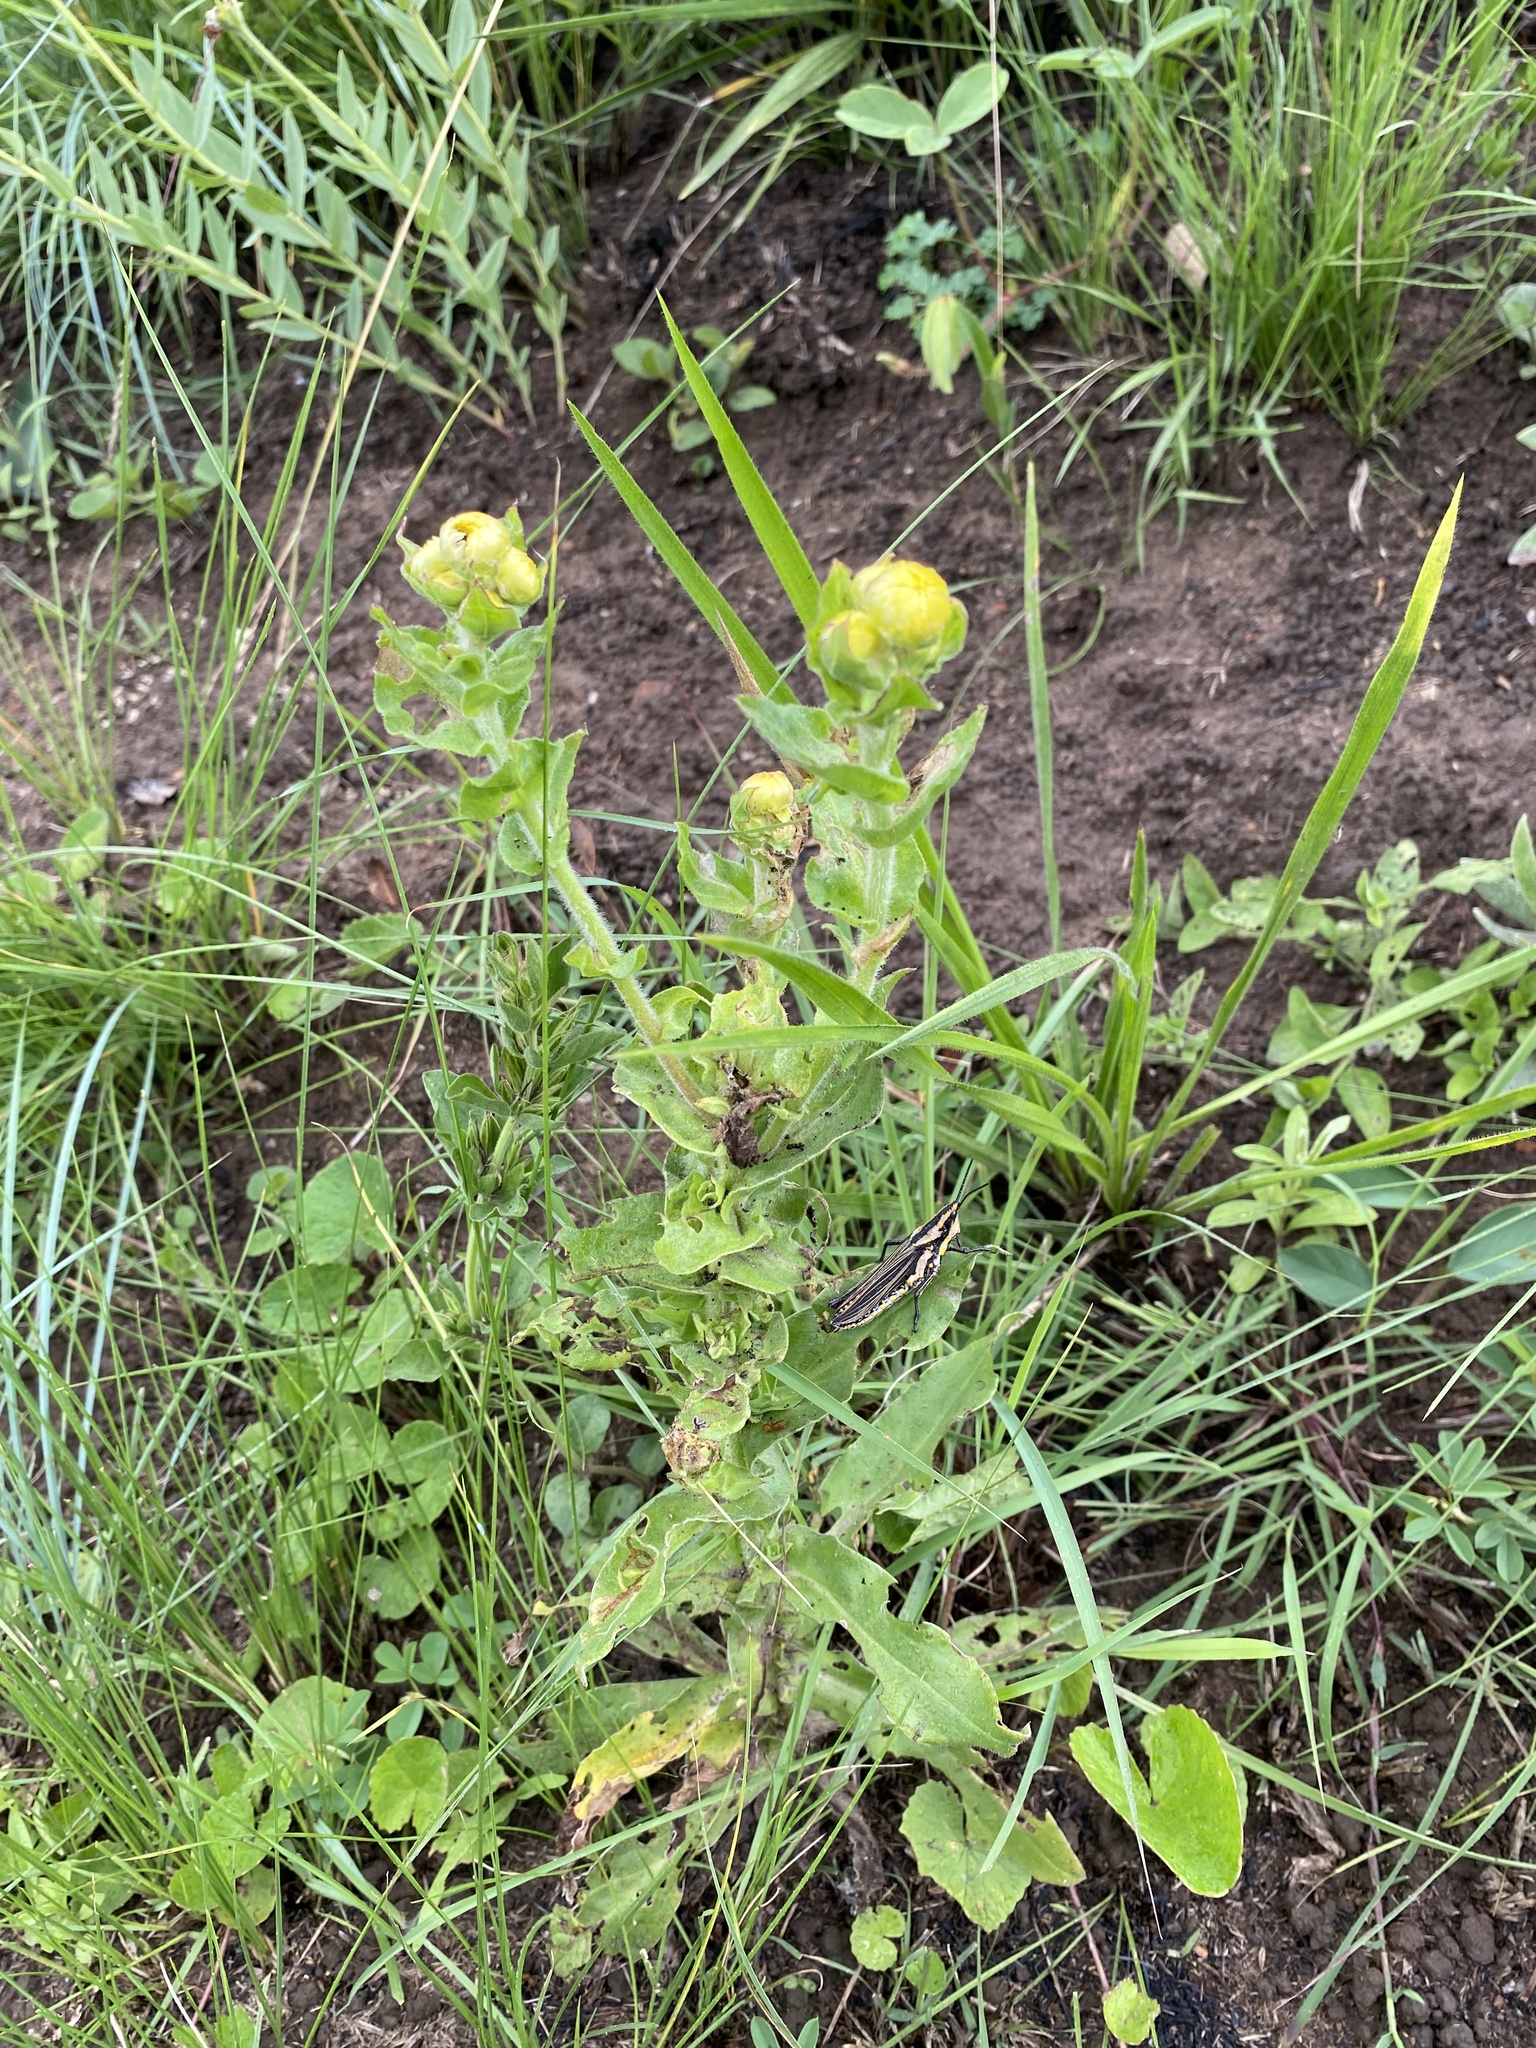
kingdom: Plantae
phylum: Tracheophyta
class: Magnoliopsida
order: Asterales
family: Asteraceae
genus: Helichrysum
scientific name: Helichrysum ruderale
